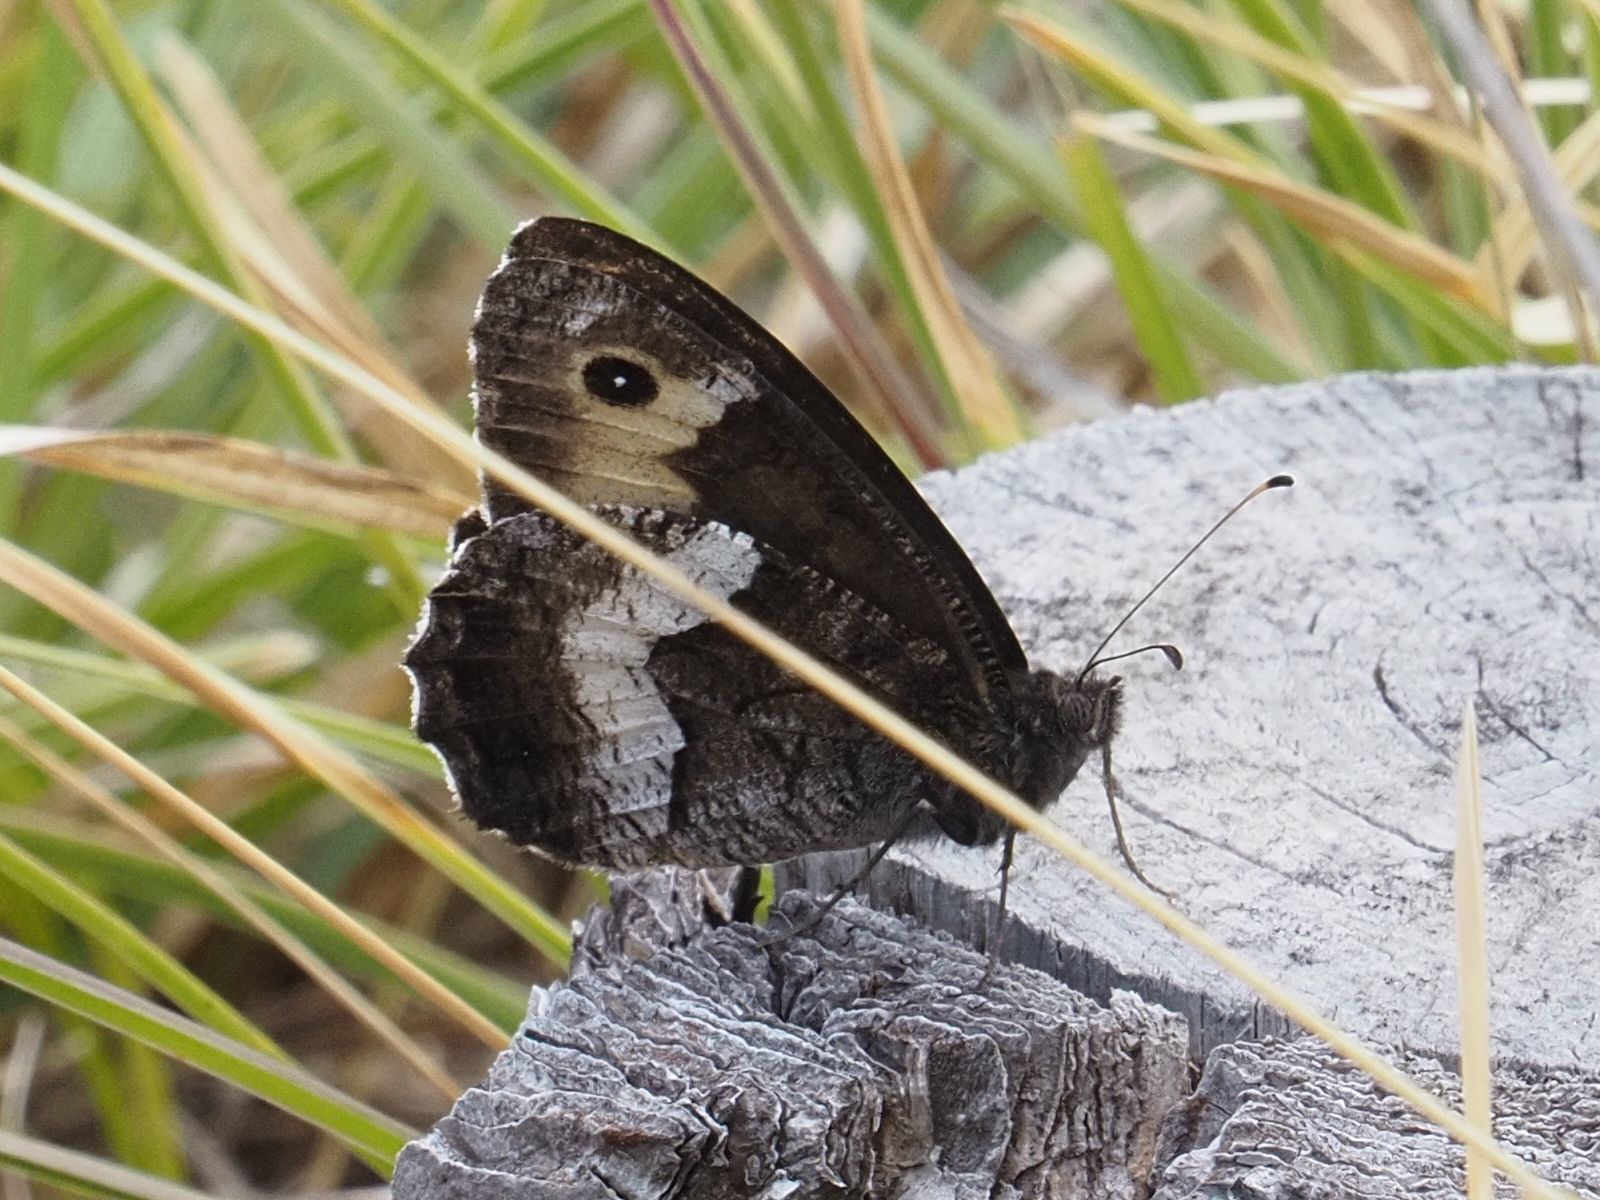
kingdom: Animalia
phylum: Arthropoda
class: Insecta
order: Lepidoptera
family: Nymphalidae
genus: Hipparchia
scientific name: Hipparchia hermione
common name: Rock grayling
